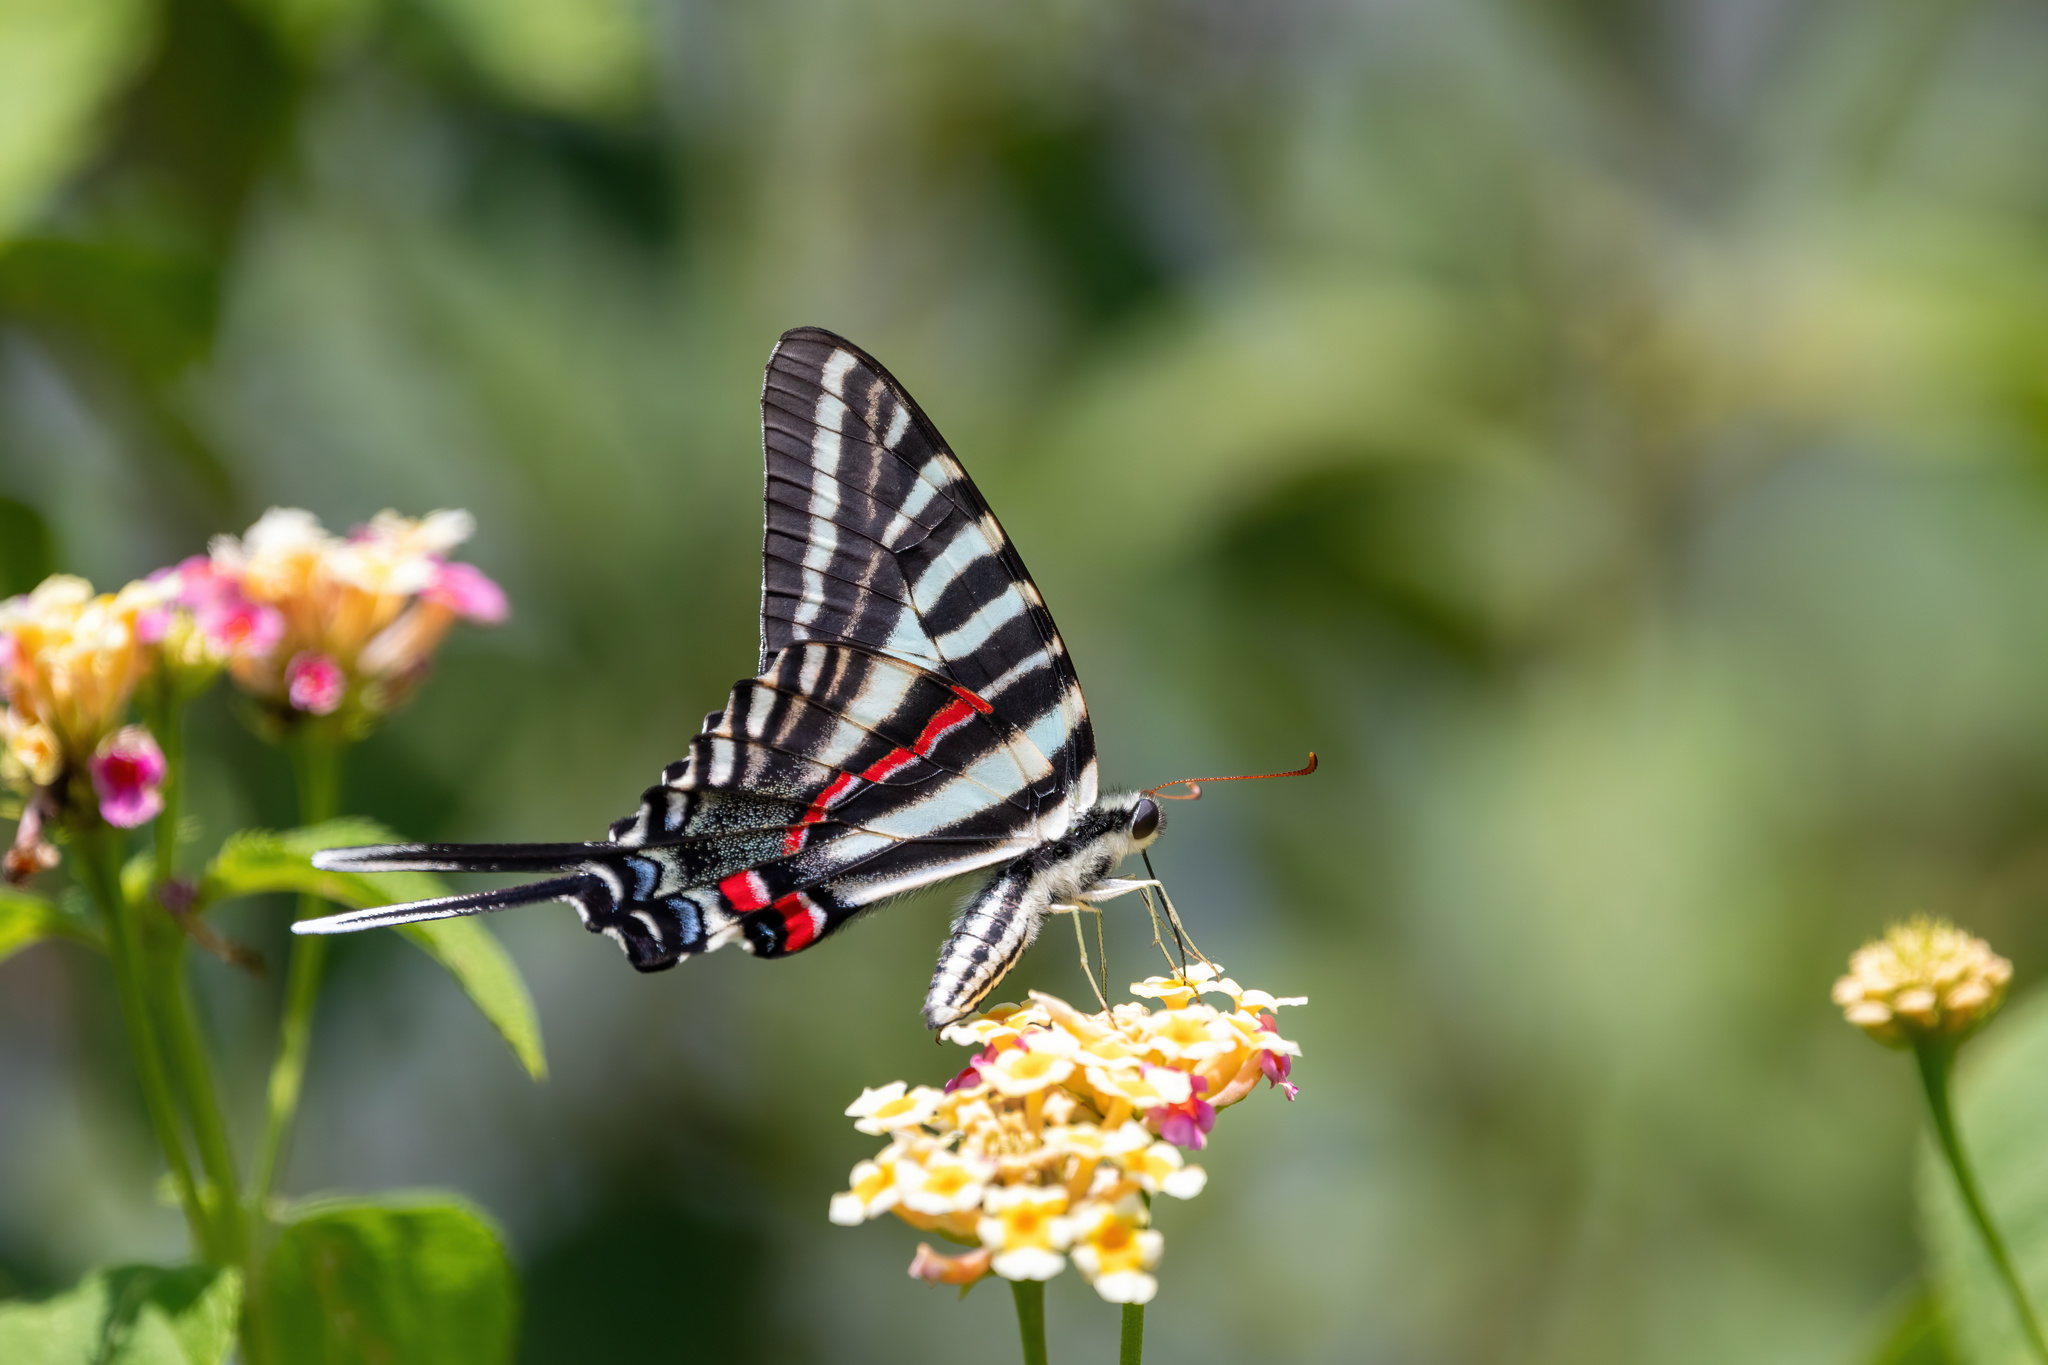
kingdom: Animalia
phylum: Arthropoda
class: Insecta
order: Lepidoptera
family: Papilionidae
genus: Protographium
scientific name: Protographium marcellus
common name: Zebra swallowtail
